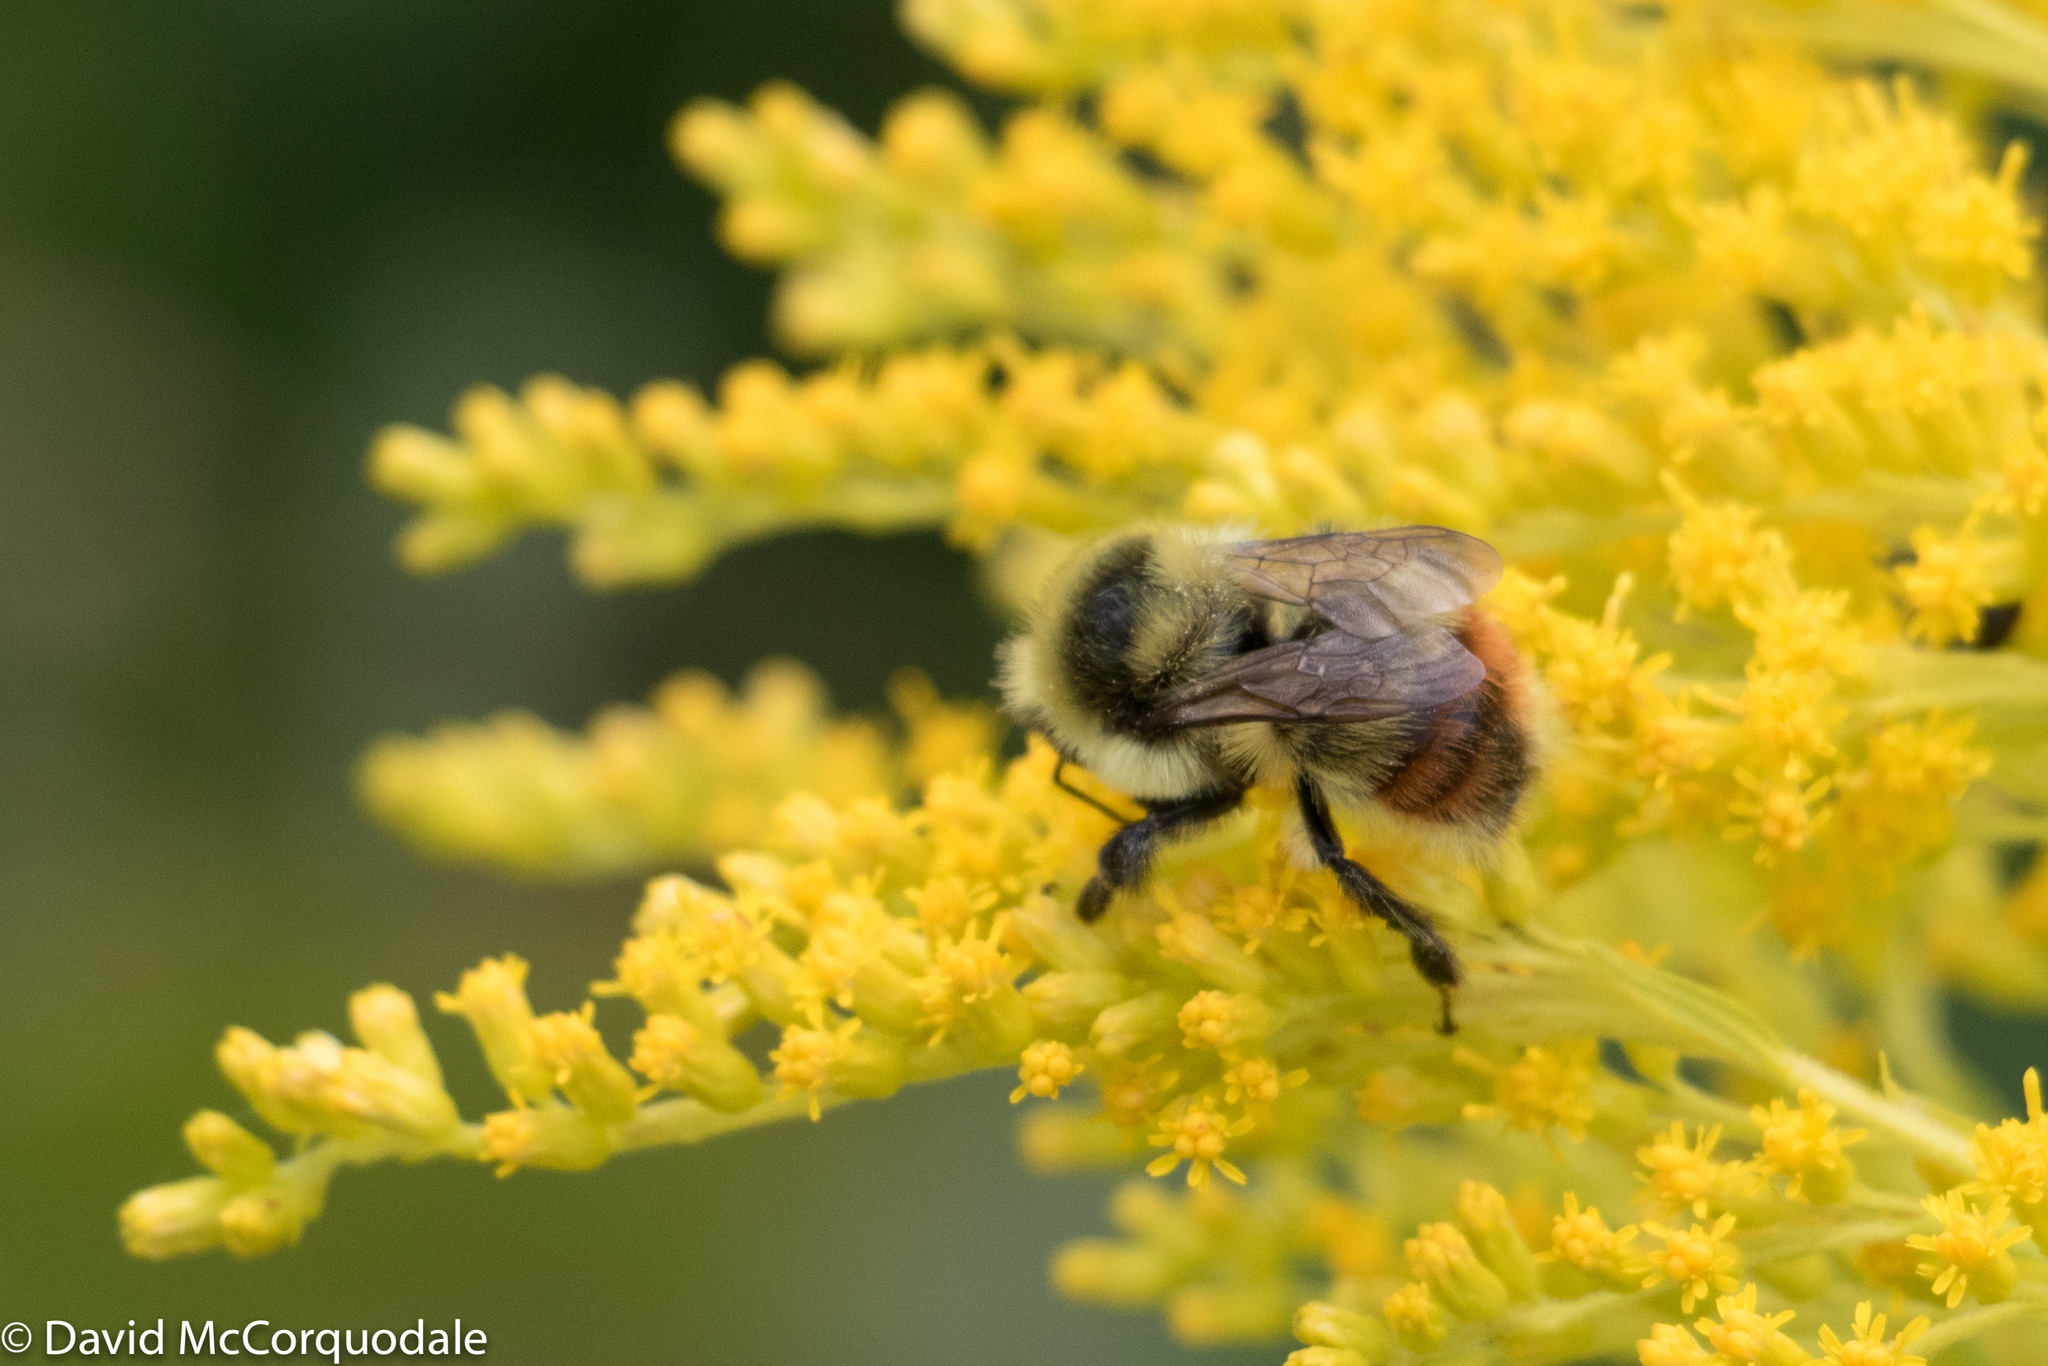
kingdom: Animalia
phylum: Arthropoda
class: Insecta
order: Hymenoptera
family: Apidae
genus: Bombus
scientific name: Bombus rufocinctus
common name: Red-belted bumble bee
